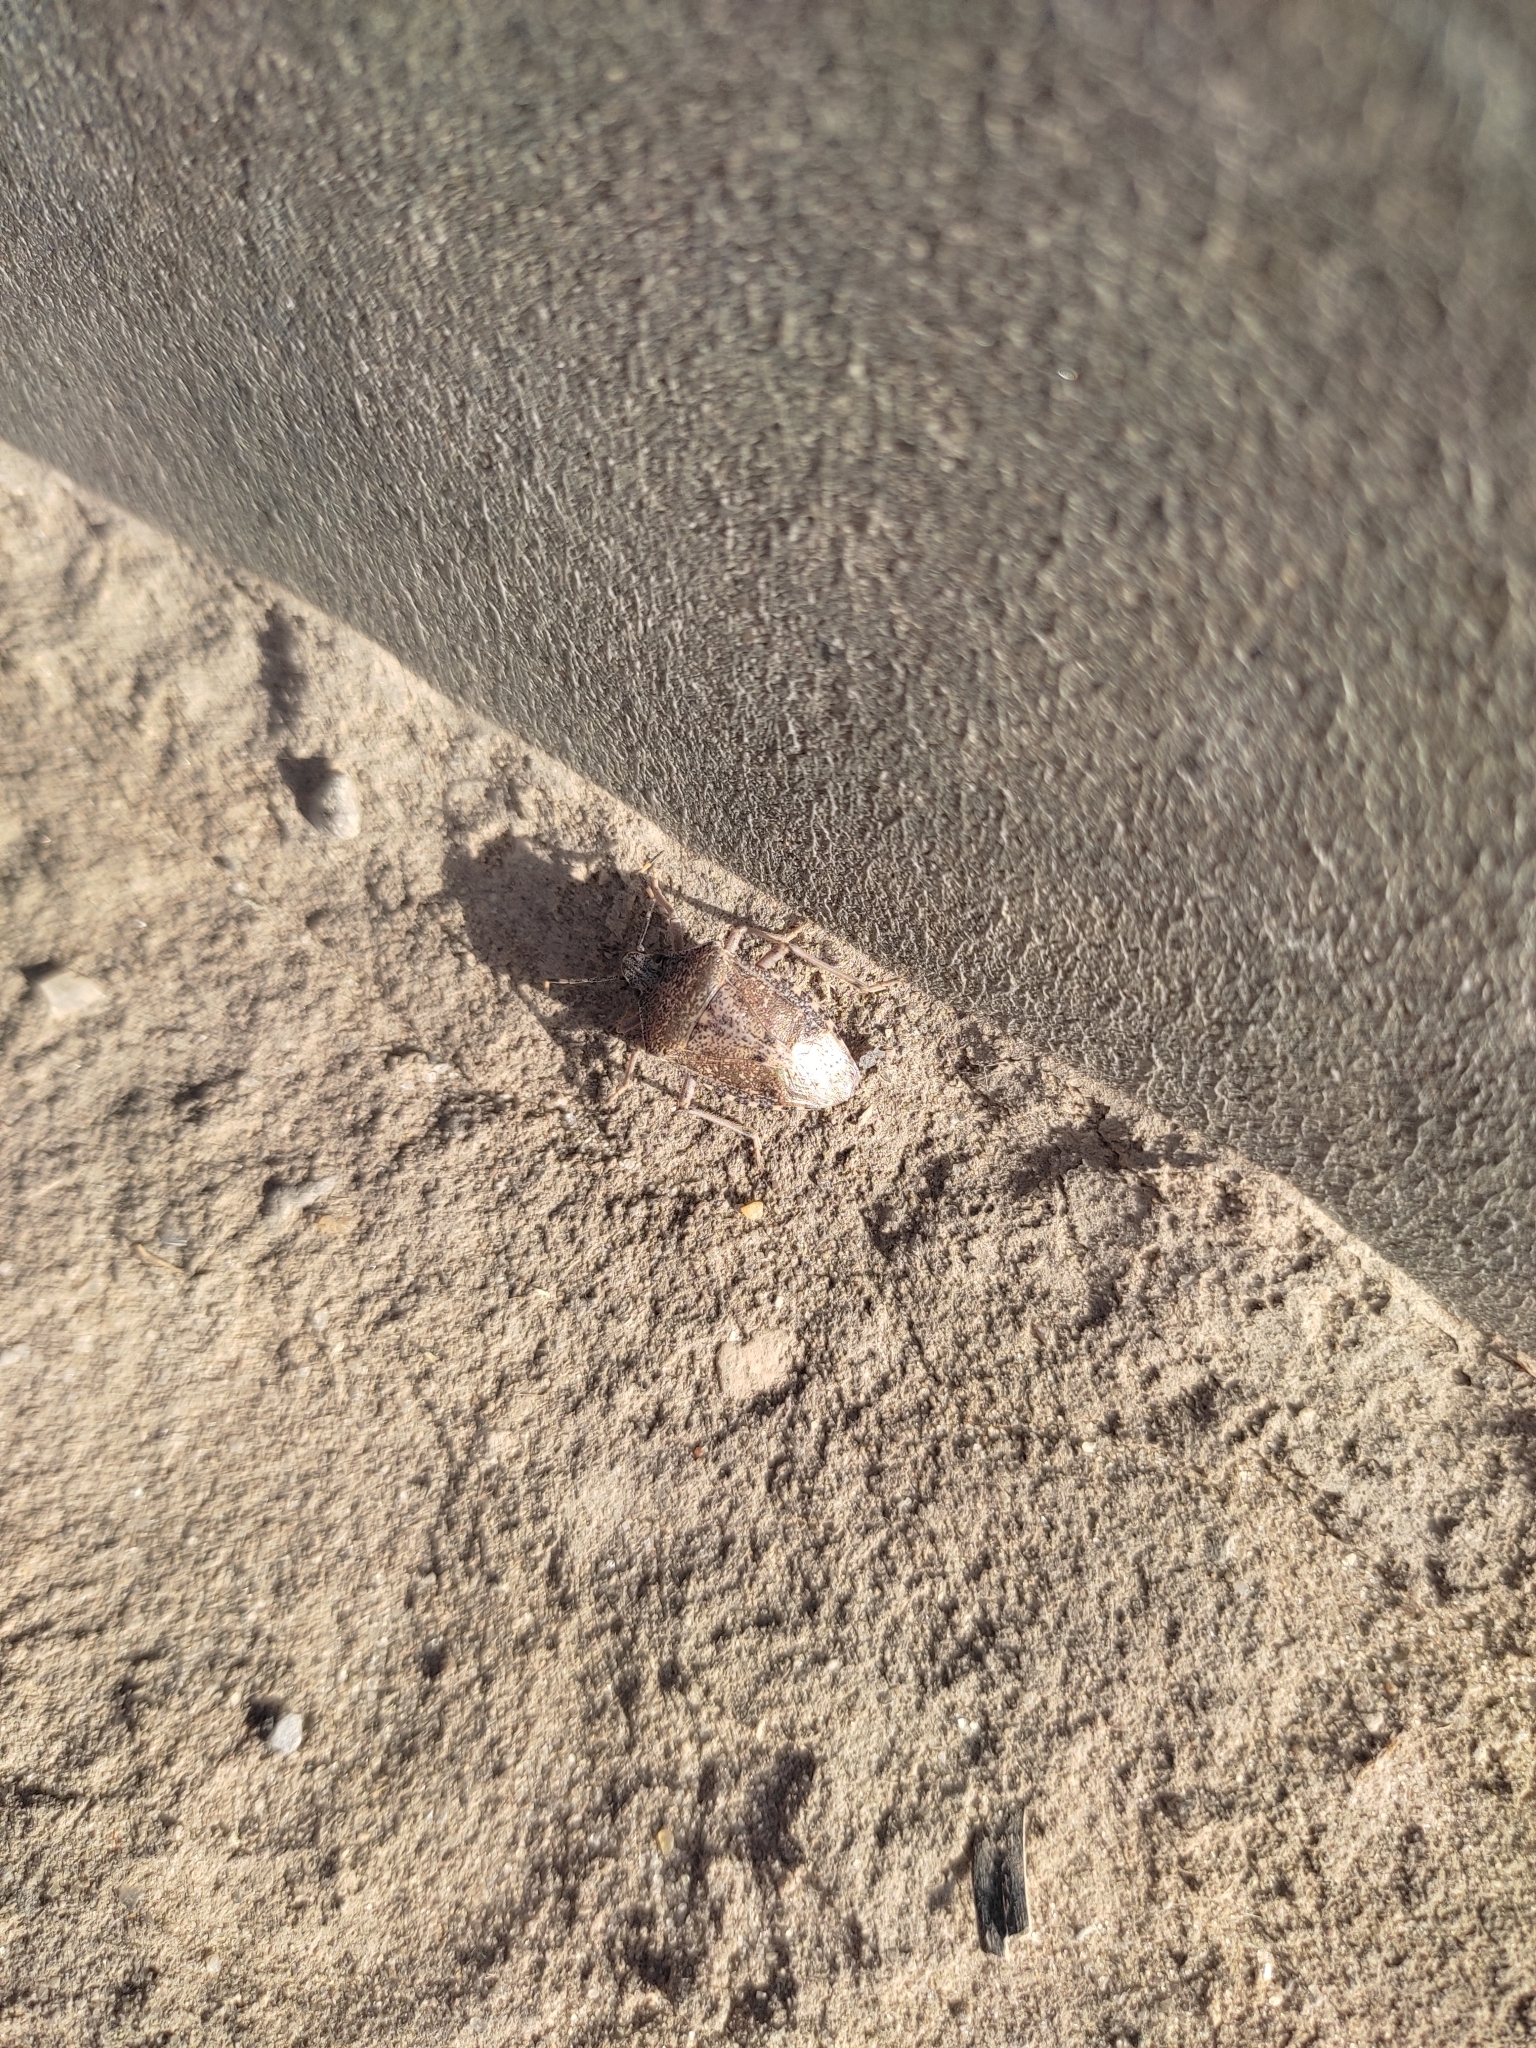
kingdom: Animalia
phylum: Arthropoda
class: Insecta
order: Hemiptera
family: Pentatomidae
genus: Rhaphigaster
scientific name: Rhaphigaster nebulosa
